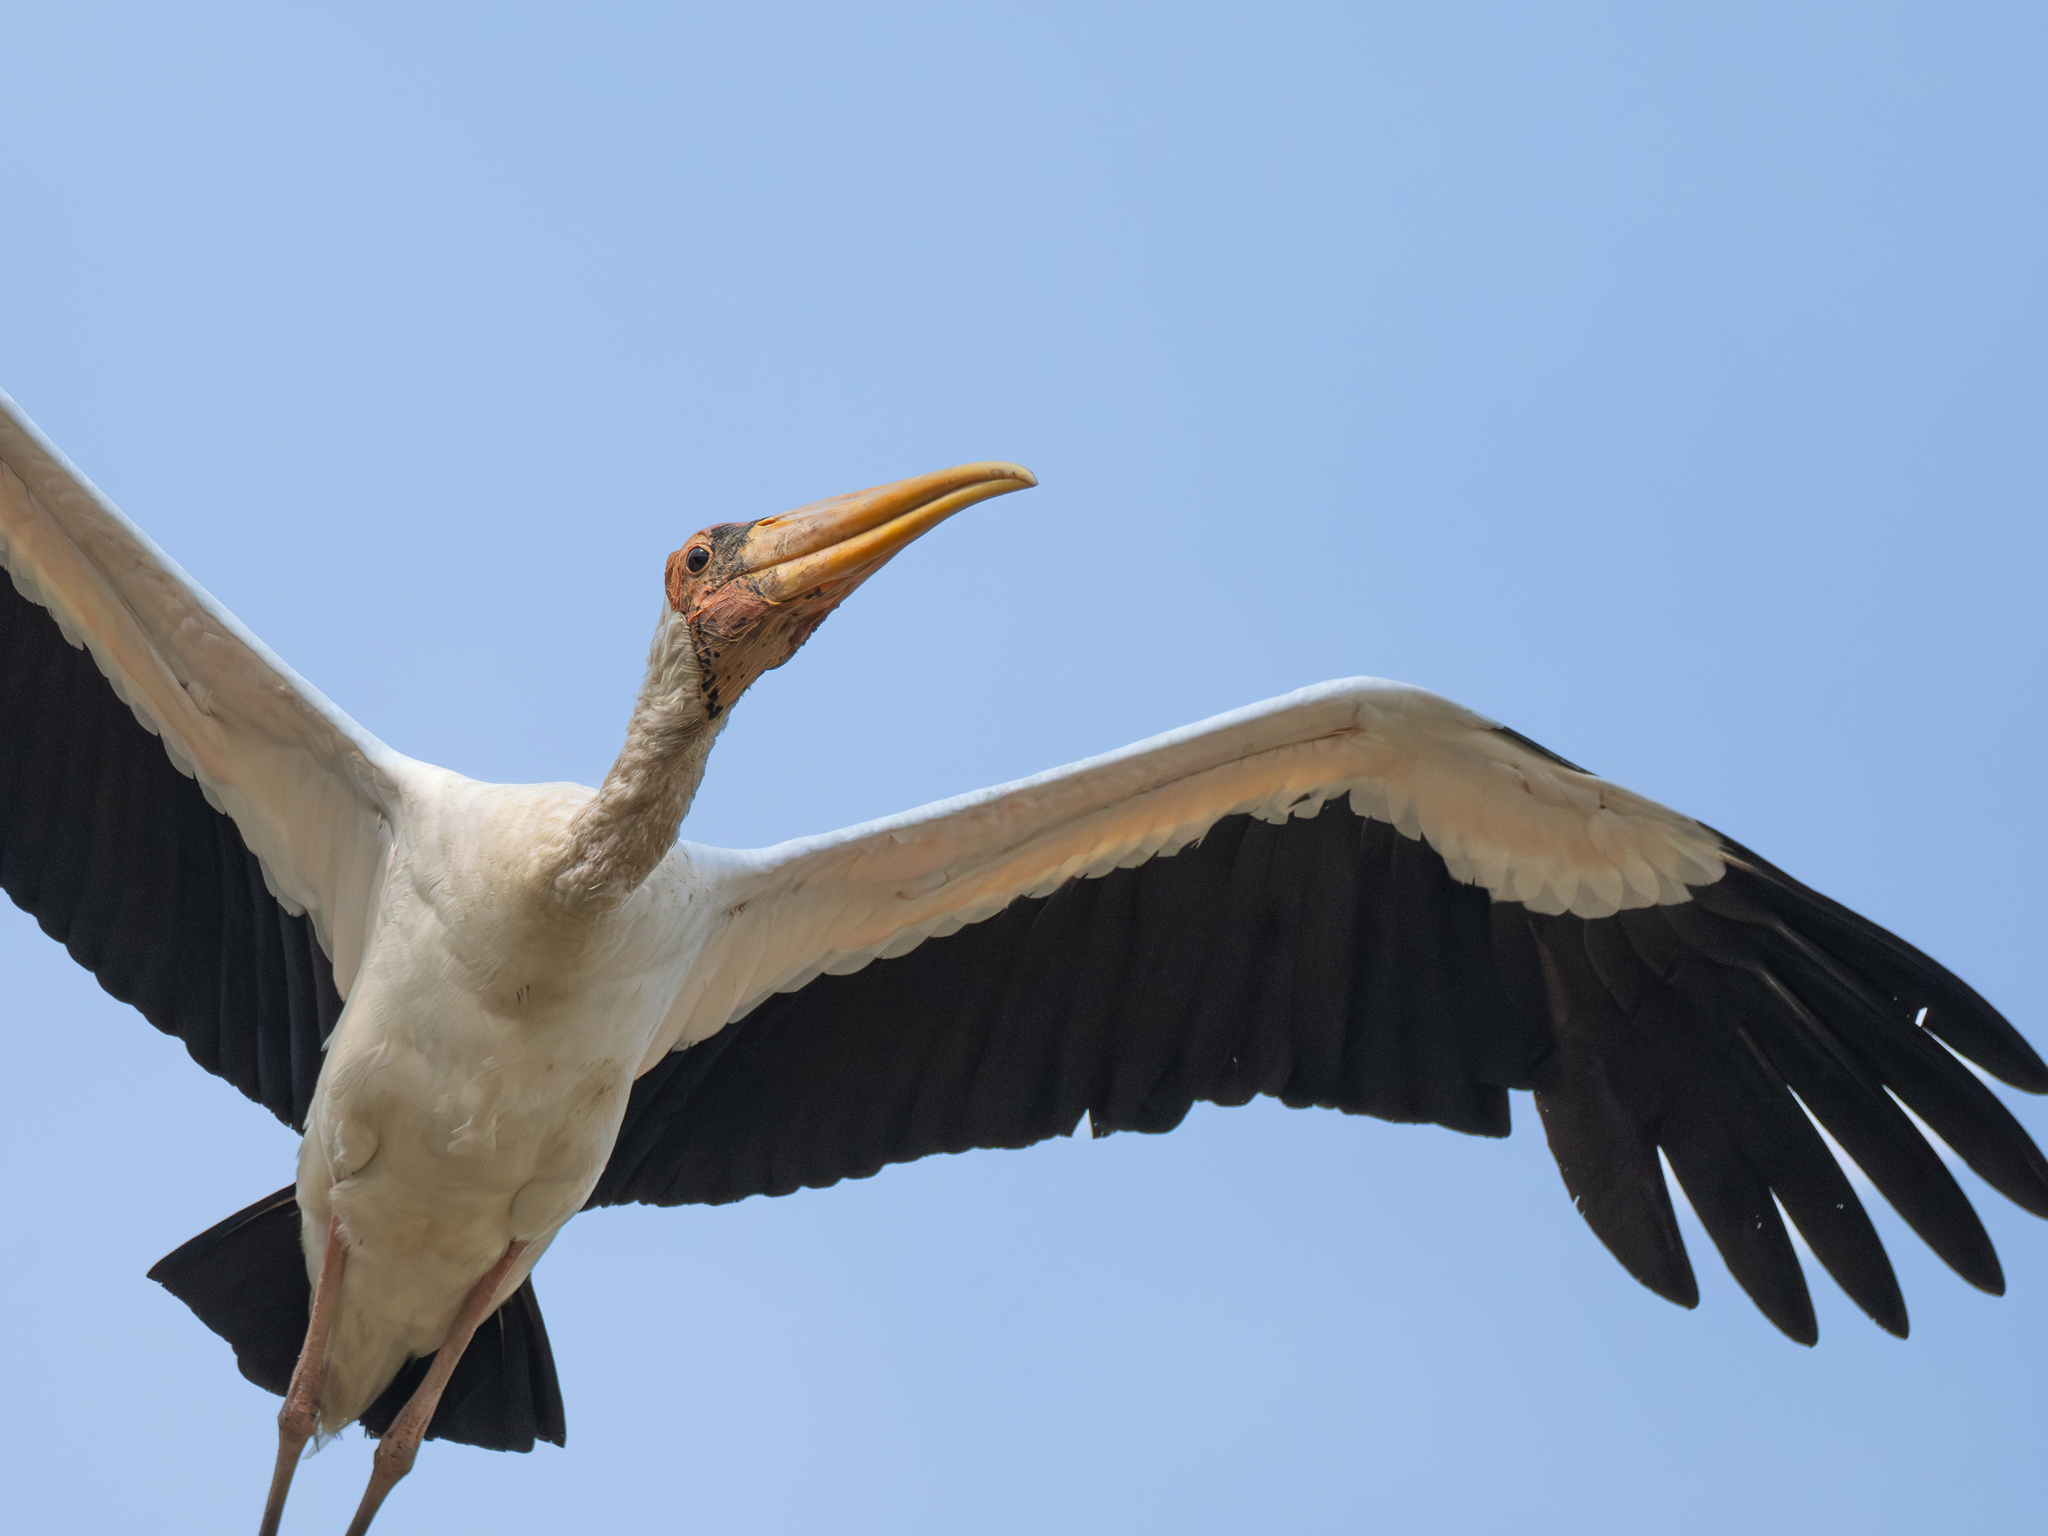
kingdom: Animalia
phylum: Chordata
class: Aves
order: Ciconiiformes
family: Ciconiidae
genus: Mycteria
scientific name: Mycteria cinerea
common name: Milky stork
